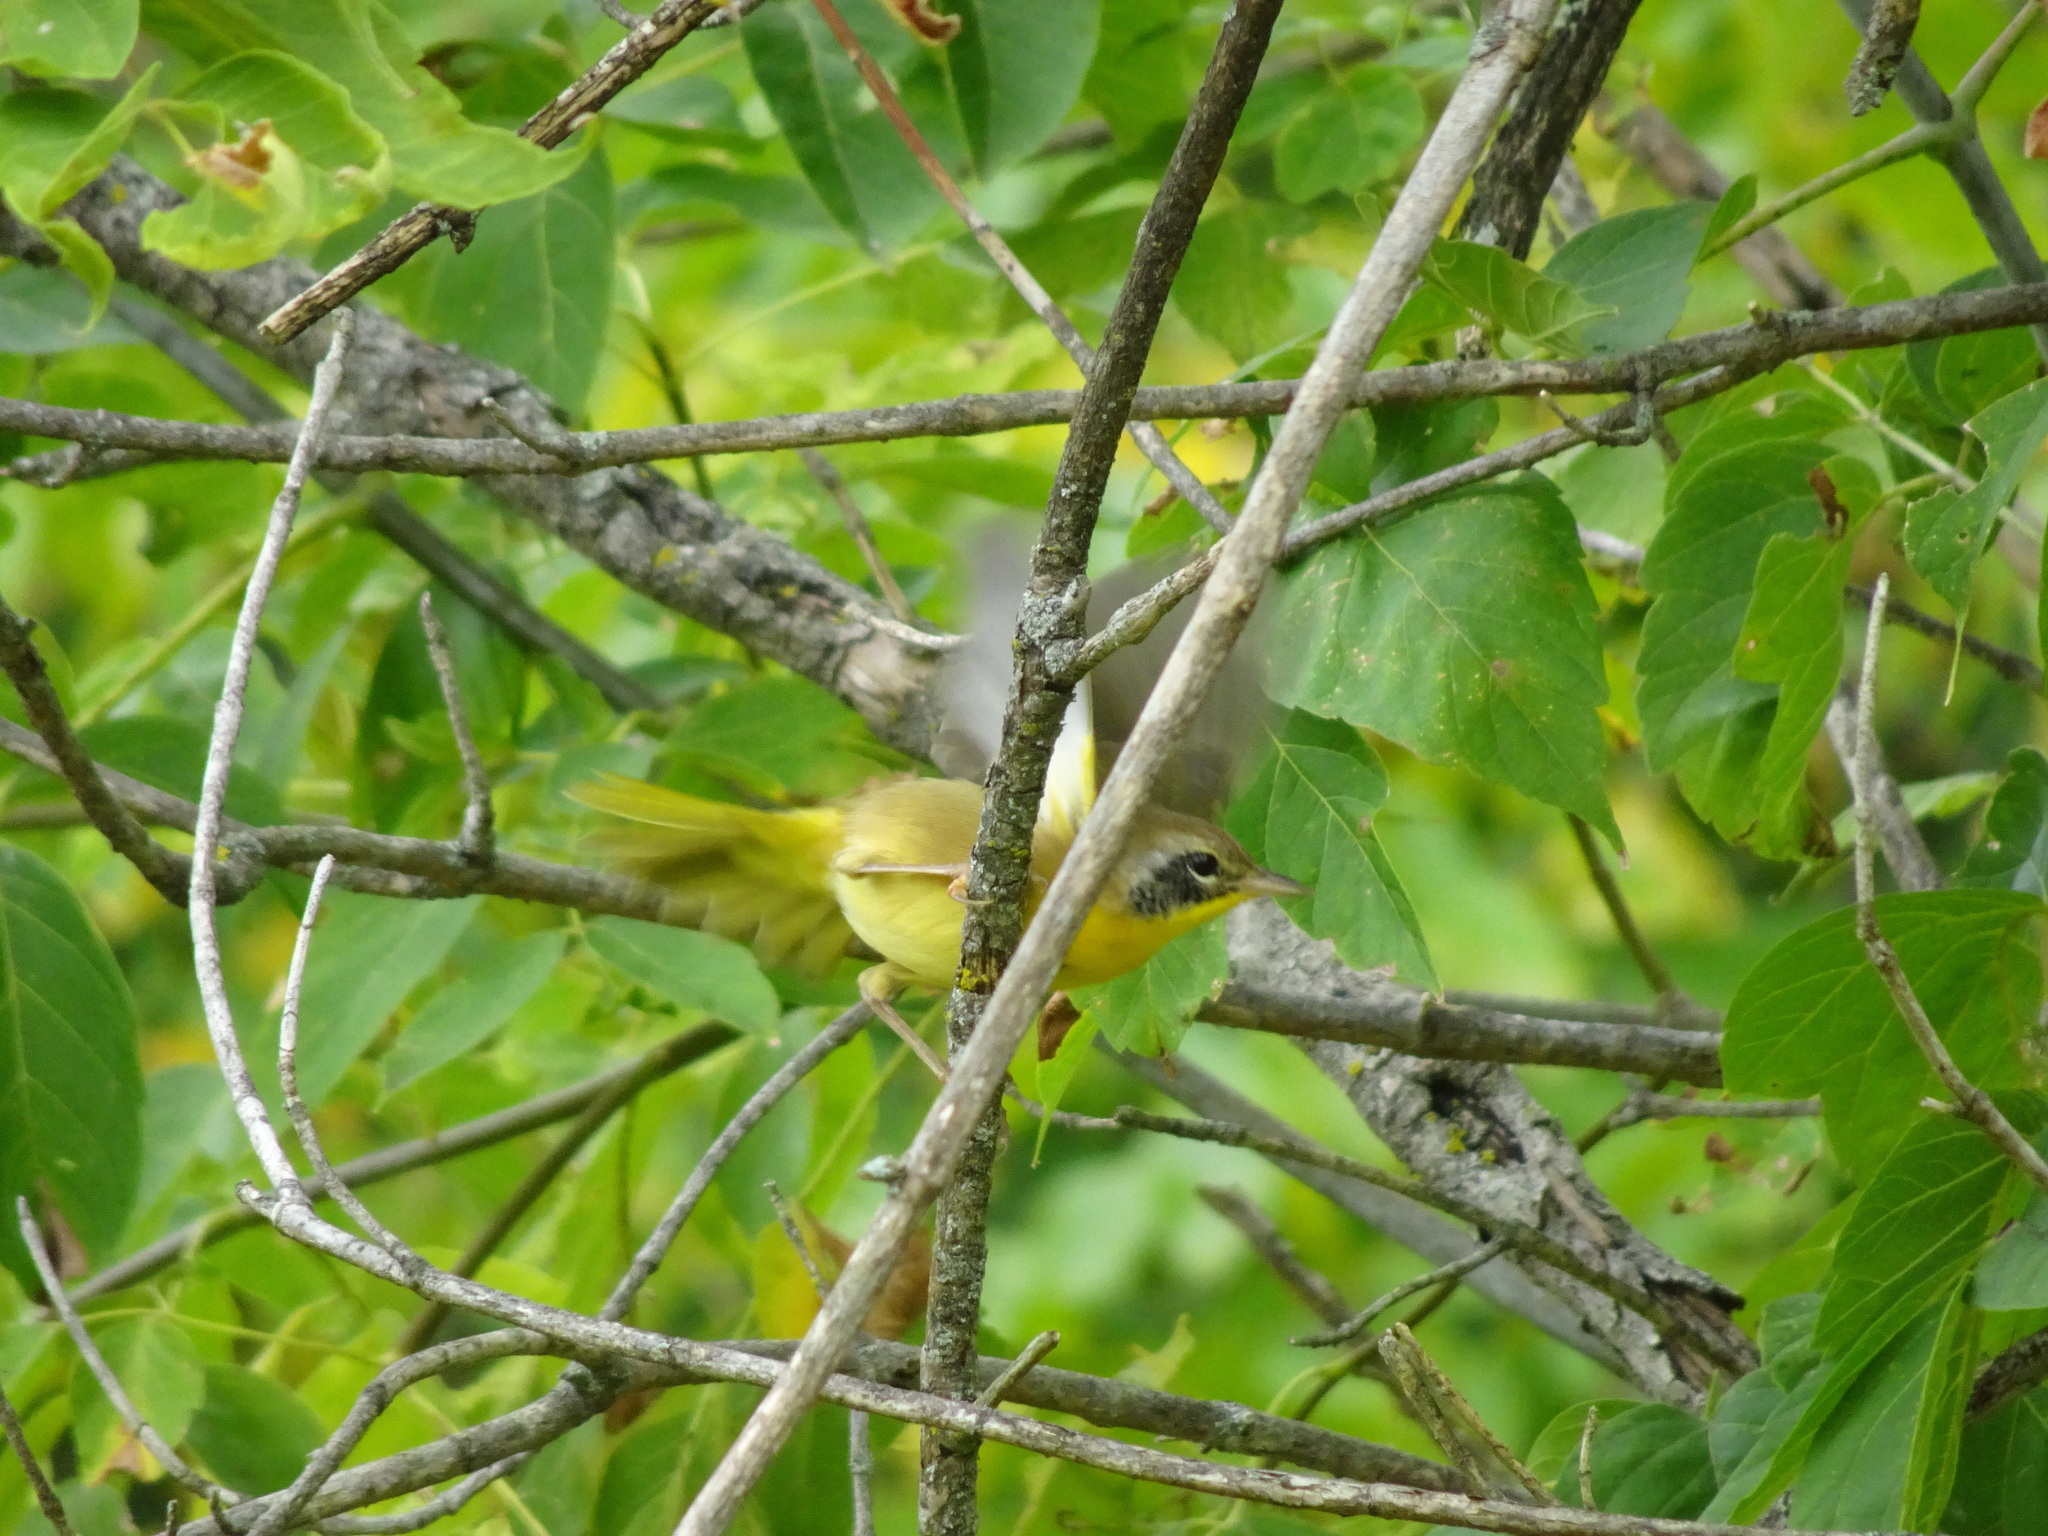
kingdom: Animalia
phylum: Chordata
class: Aves
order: Passeriformes
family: Parulidae
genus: Geothlypis
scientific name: Geothlypis trichas
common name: Common yellowthroat
